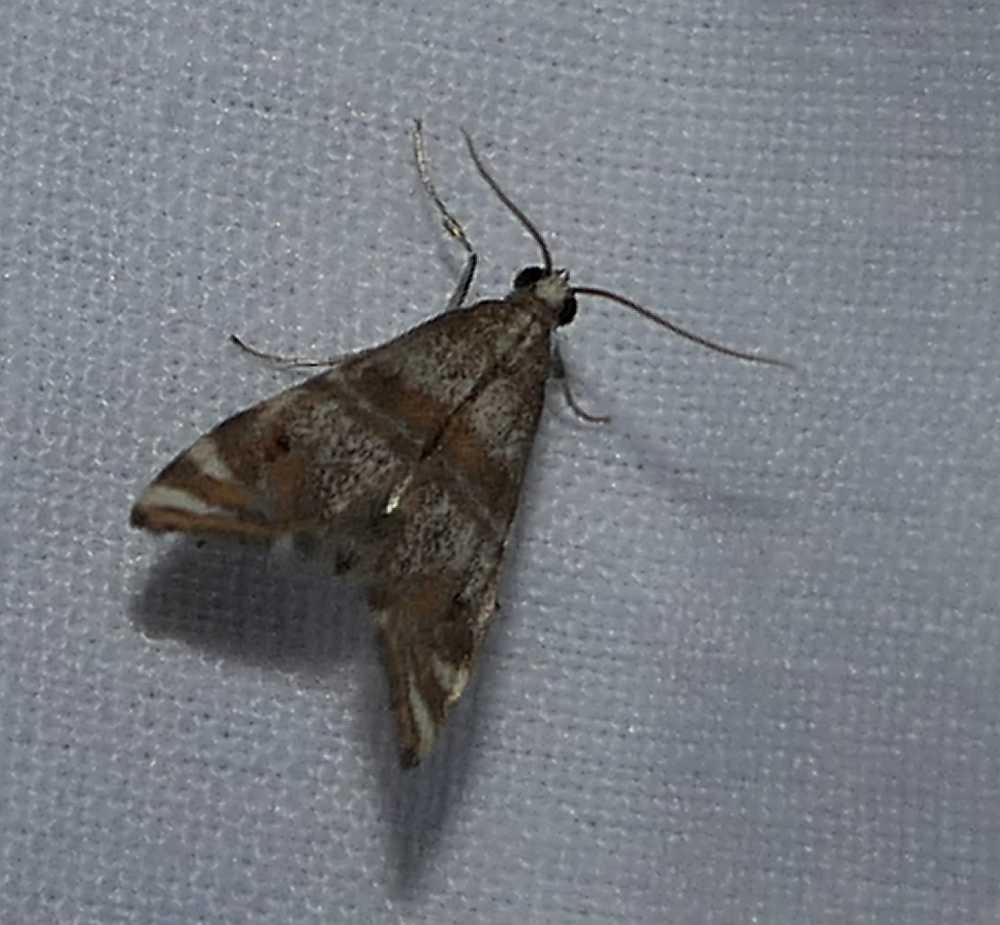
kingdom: Animalia
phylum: Arthropoda
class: Insecta
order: Lepidoptera
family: Crambidae
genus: Petrophila
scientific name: Petrophila bifascialis
